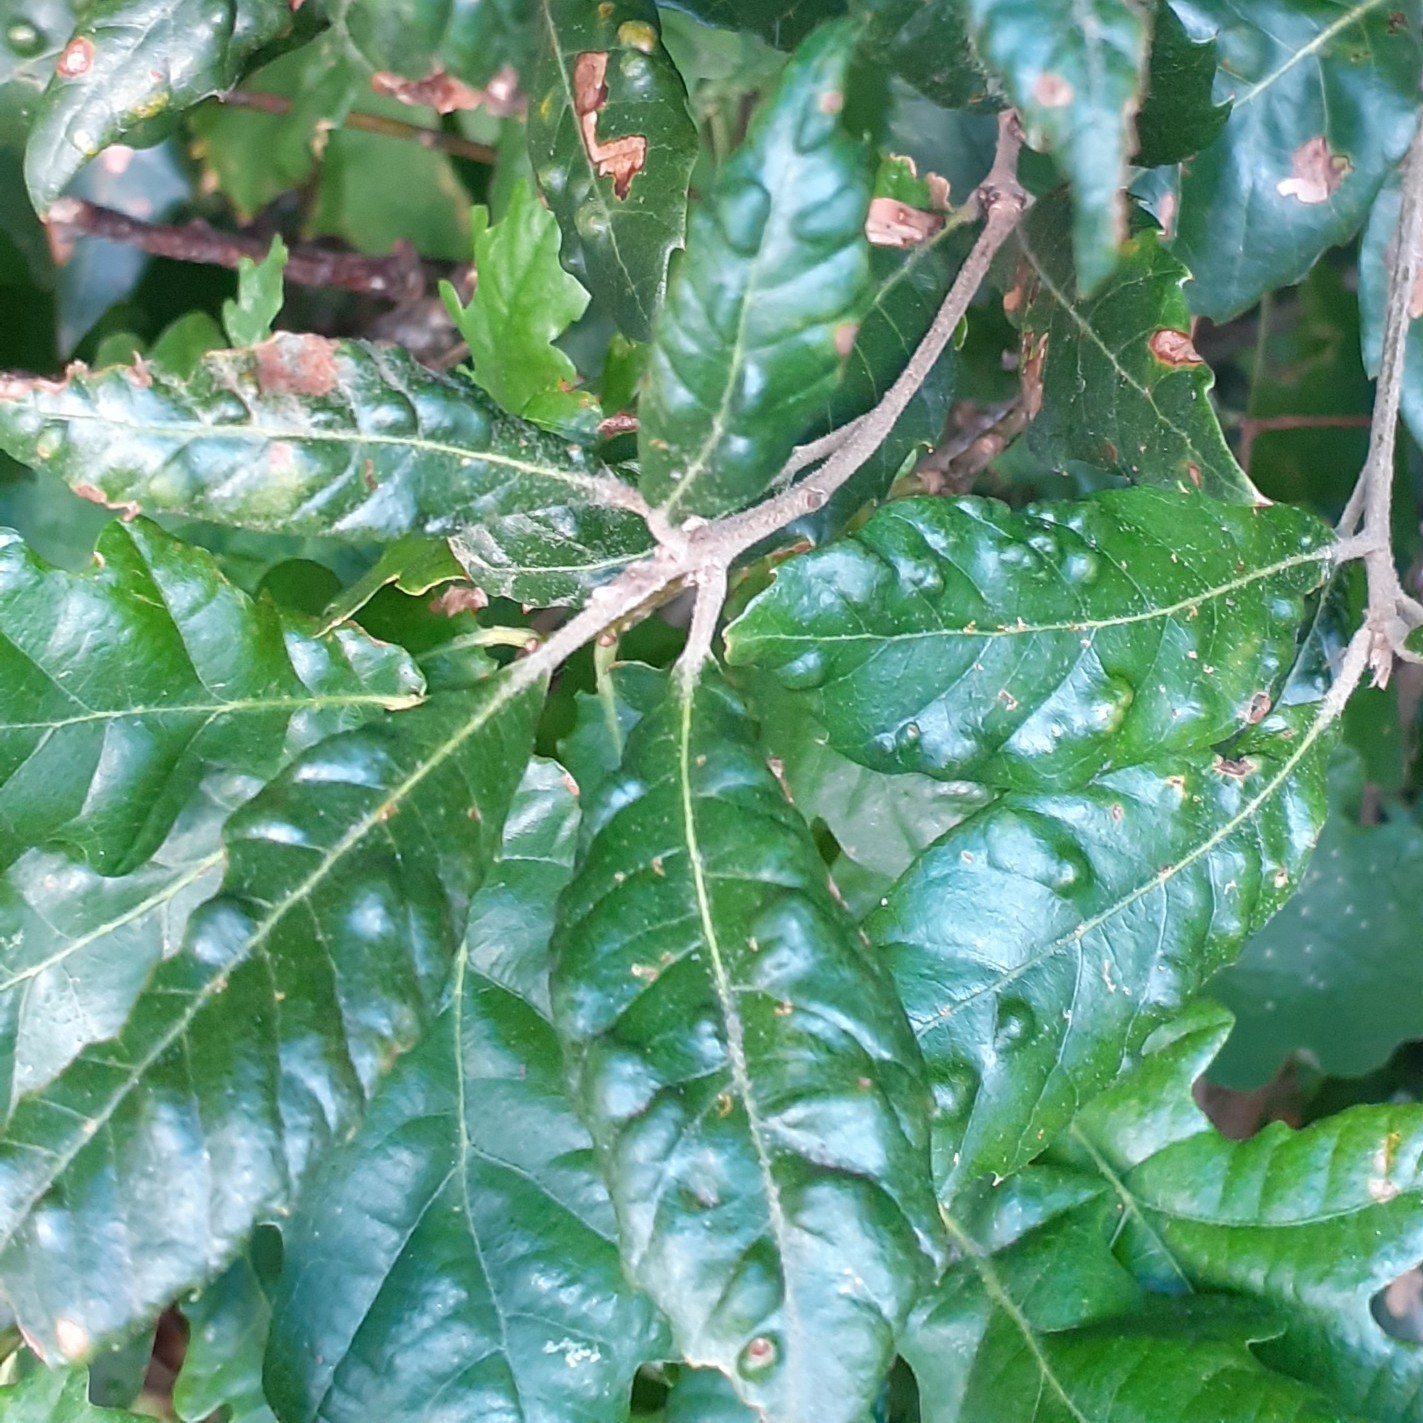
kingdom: Animalia
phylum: Arthropoda
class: Arachnida
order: Trombidiformes
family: Eriophyidae
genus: Aceria
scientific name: Aceria ilicis
